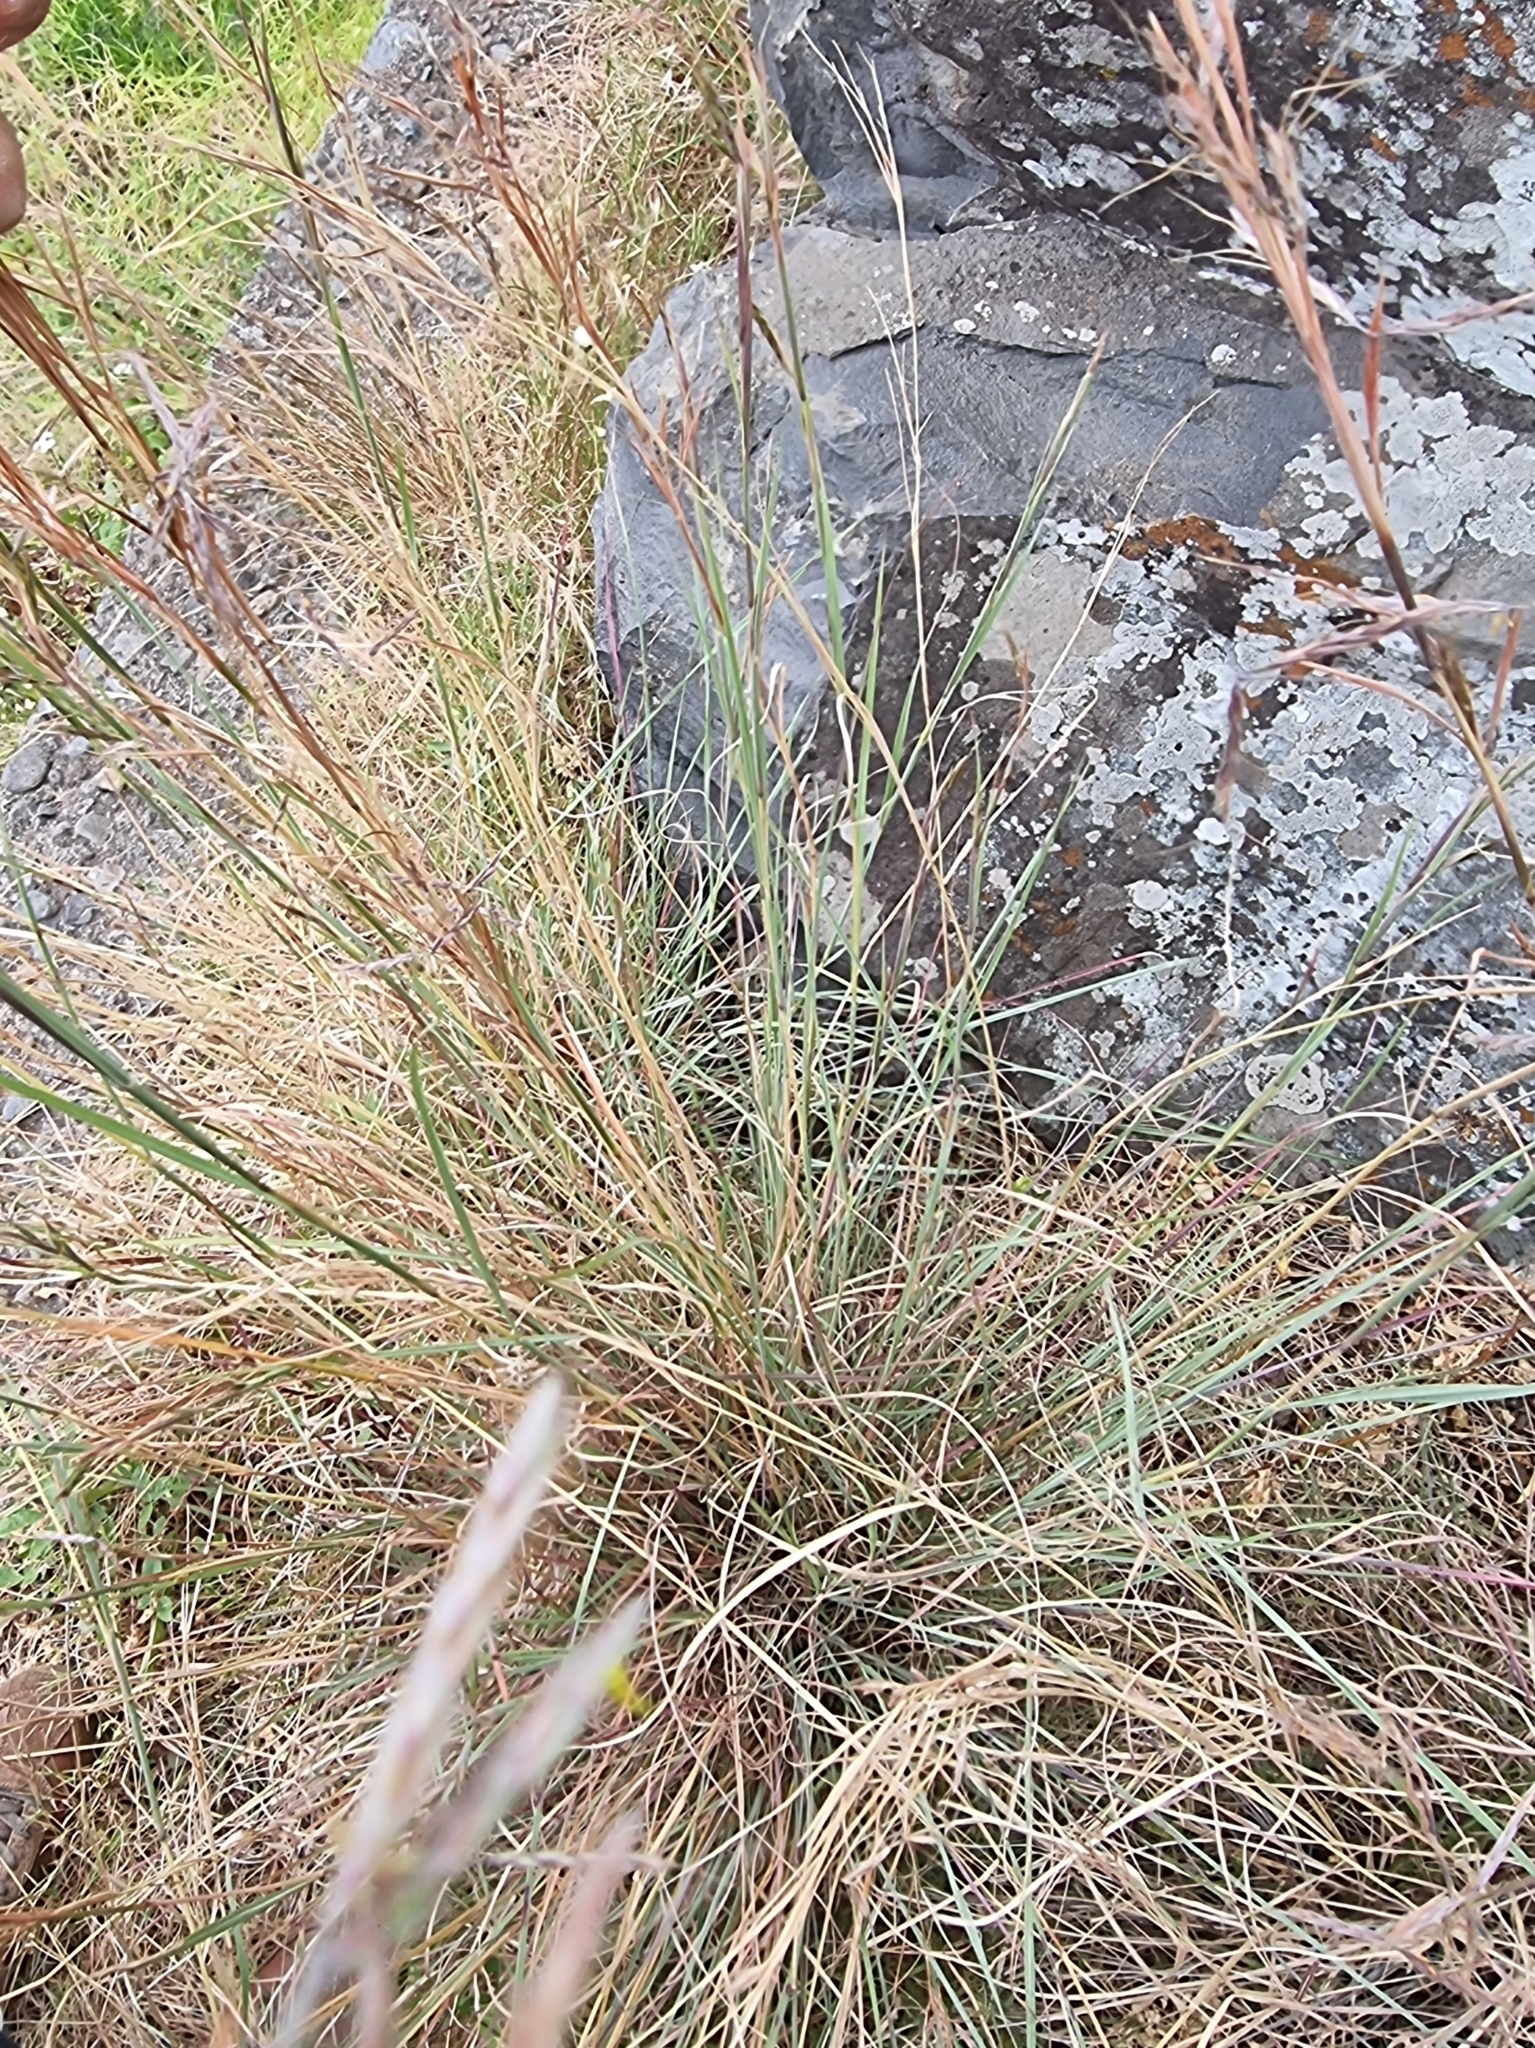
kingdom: Plantae
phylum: Tracheophyta
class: Liliopsida
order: Poales
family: Poaceae
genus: Hyparrhenia
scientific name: Hyparrhenia hirta
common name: Thatching grass
